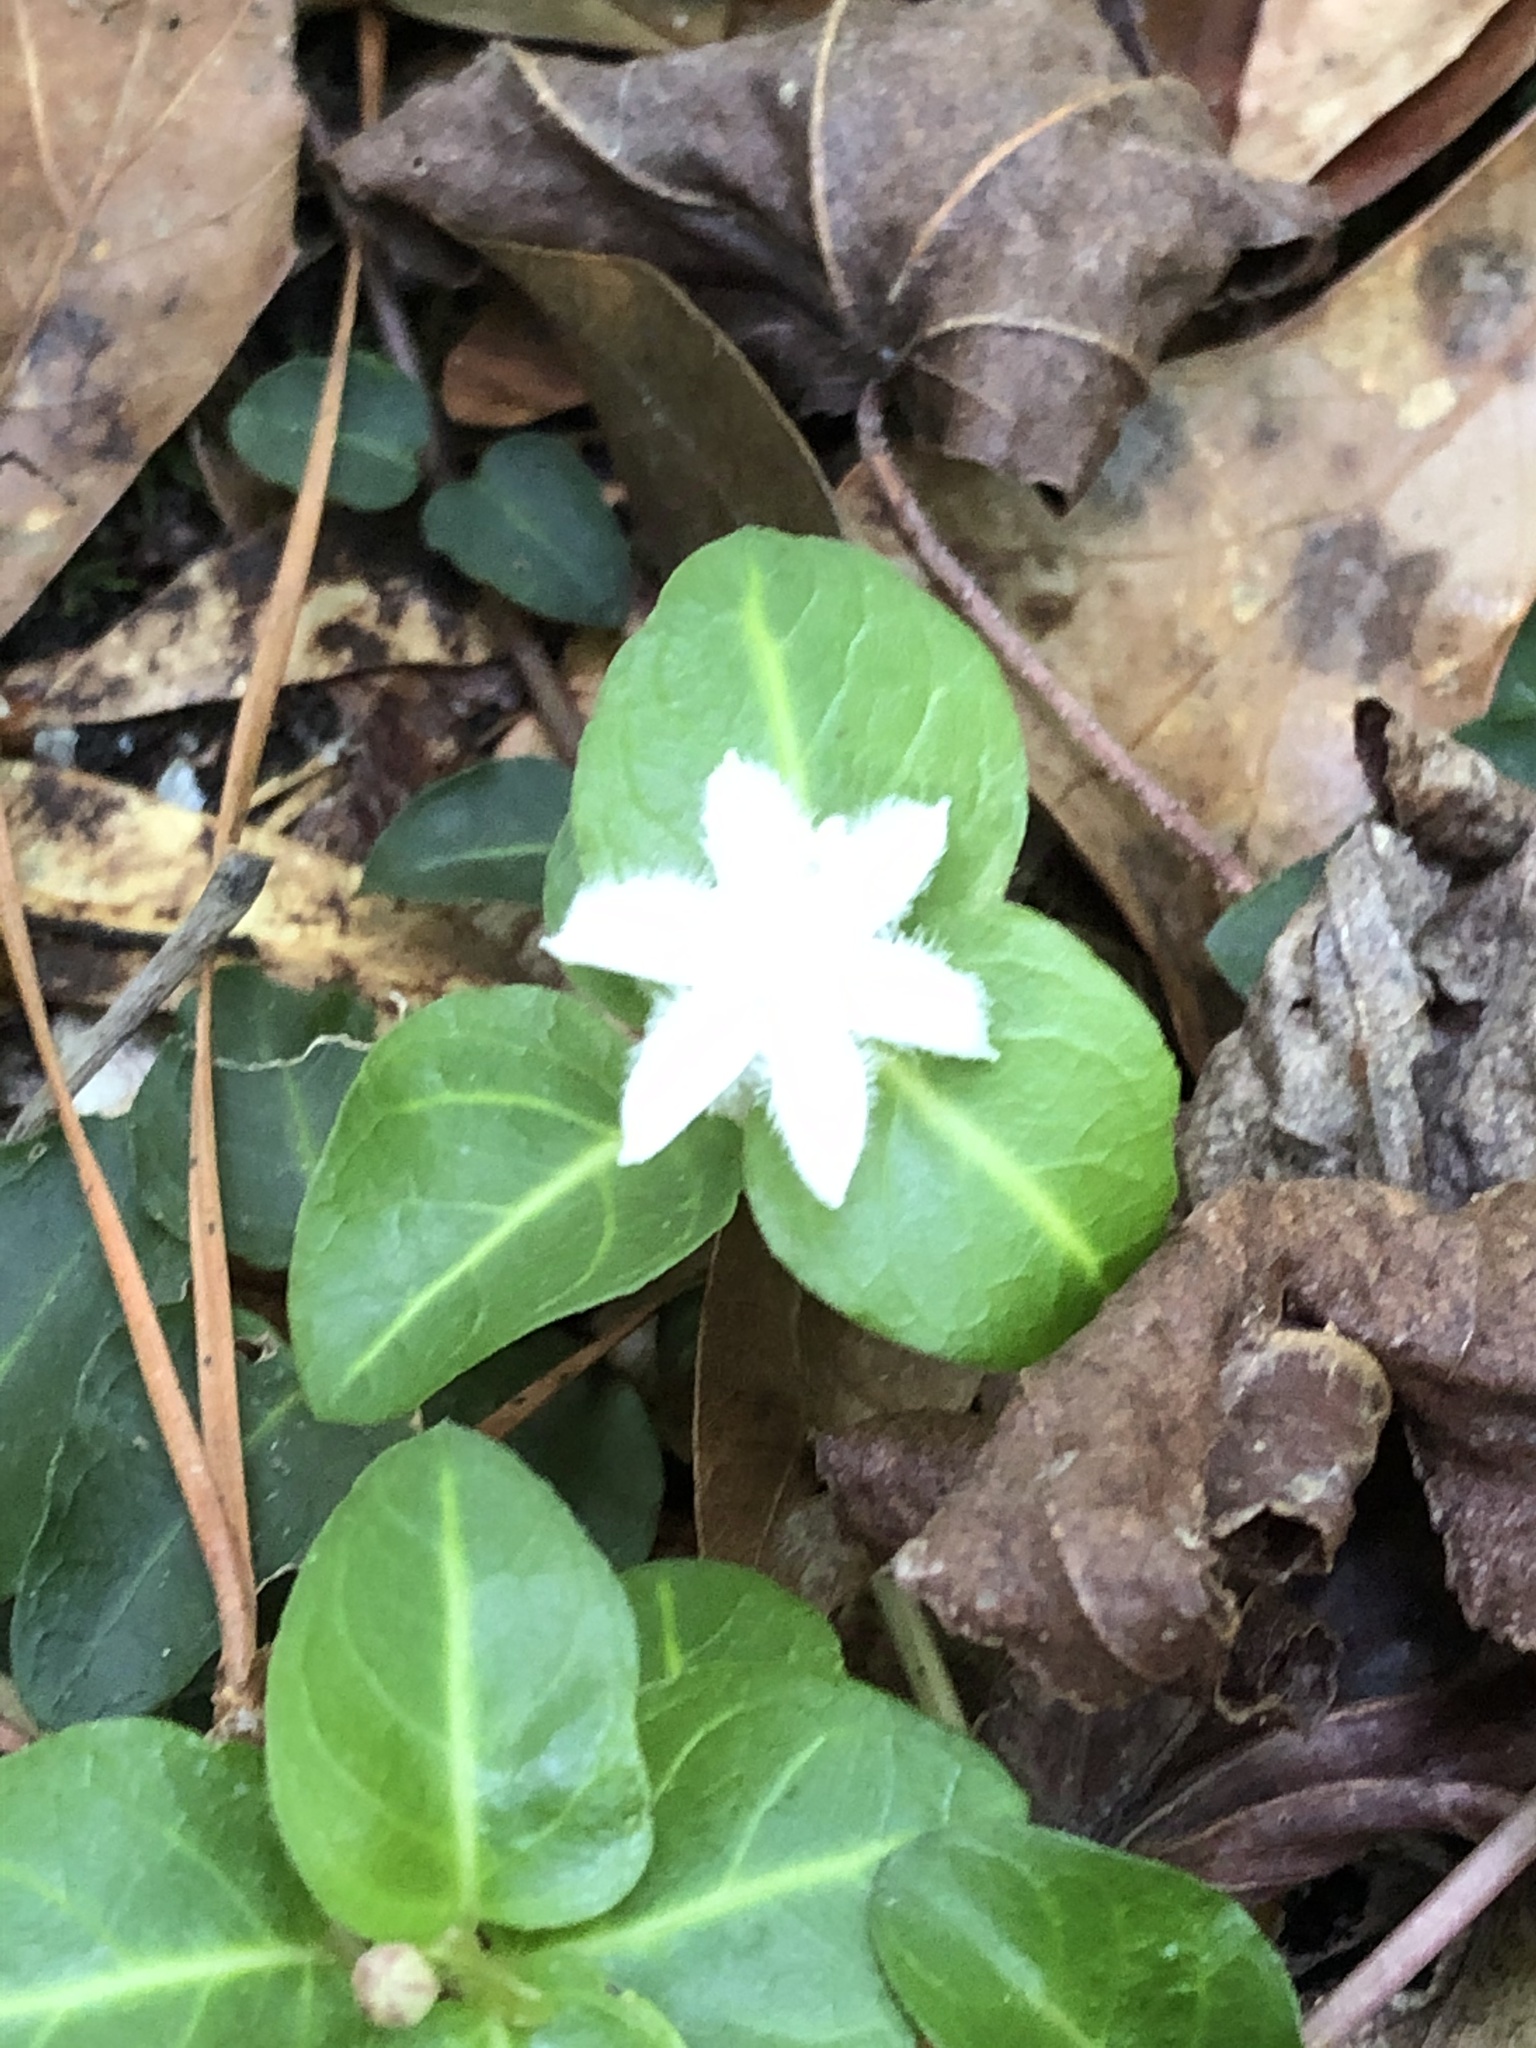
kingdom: Plantae
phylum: Tracheophyta
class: Magnoliopsida
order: Gentianales
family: Rubiaceae
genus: Mitchella
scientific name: Mitchella repens
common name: Partridge-berry
